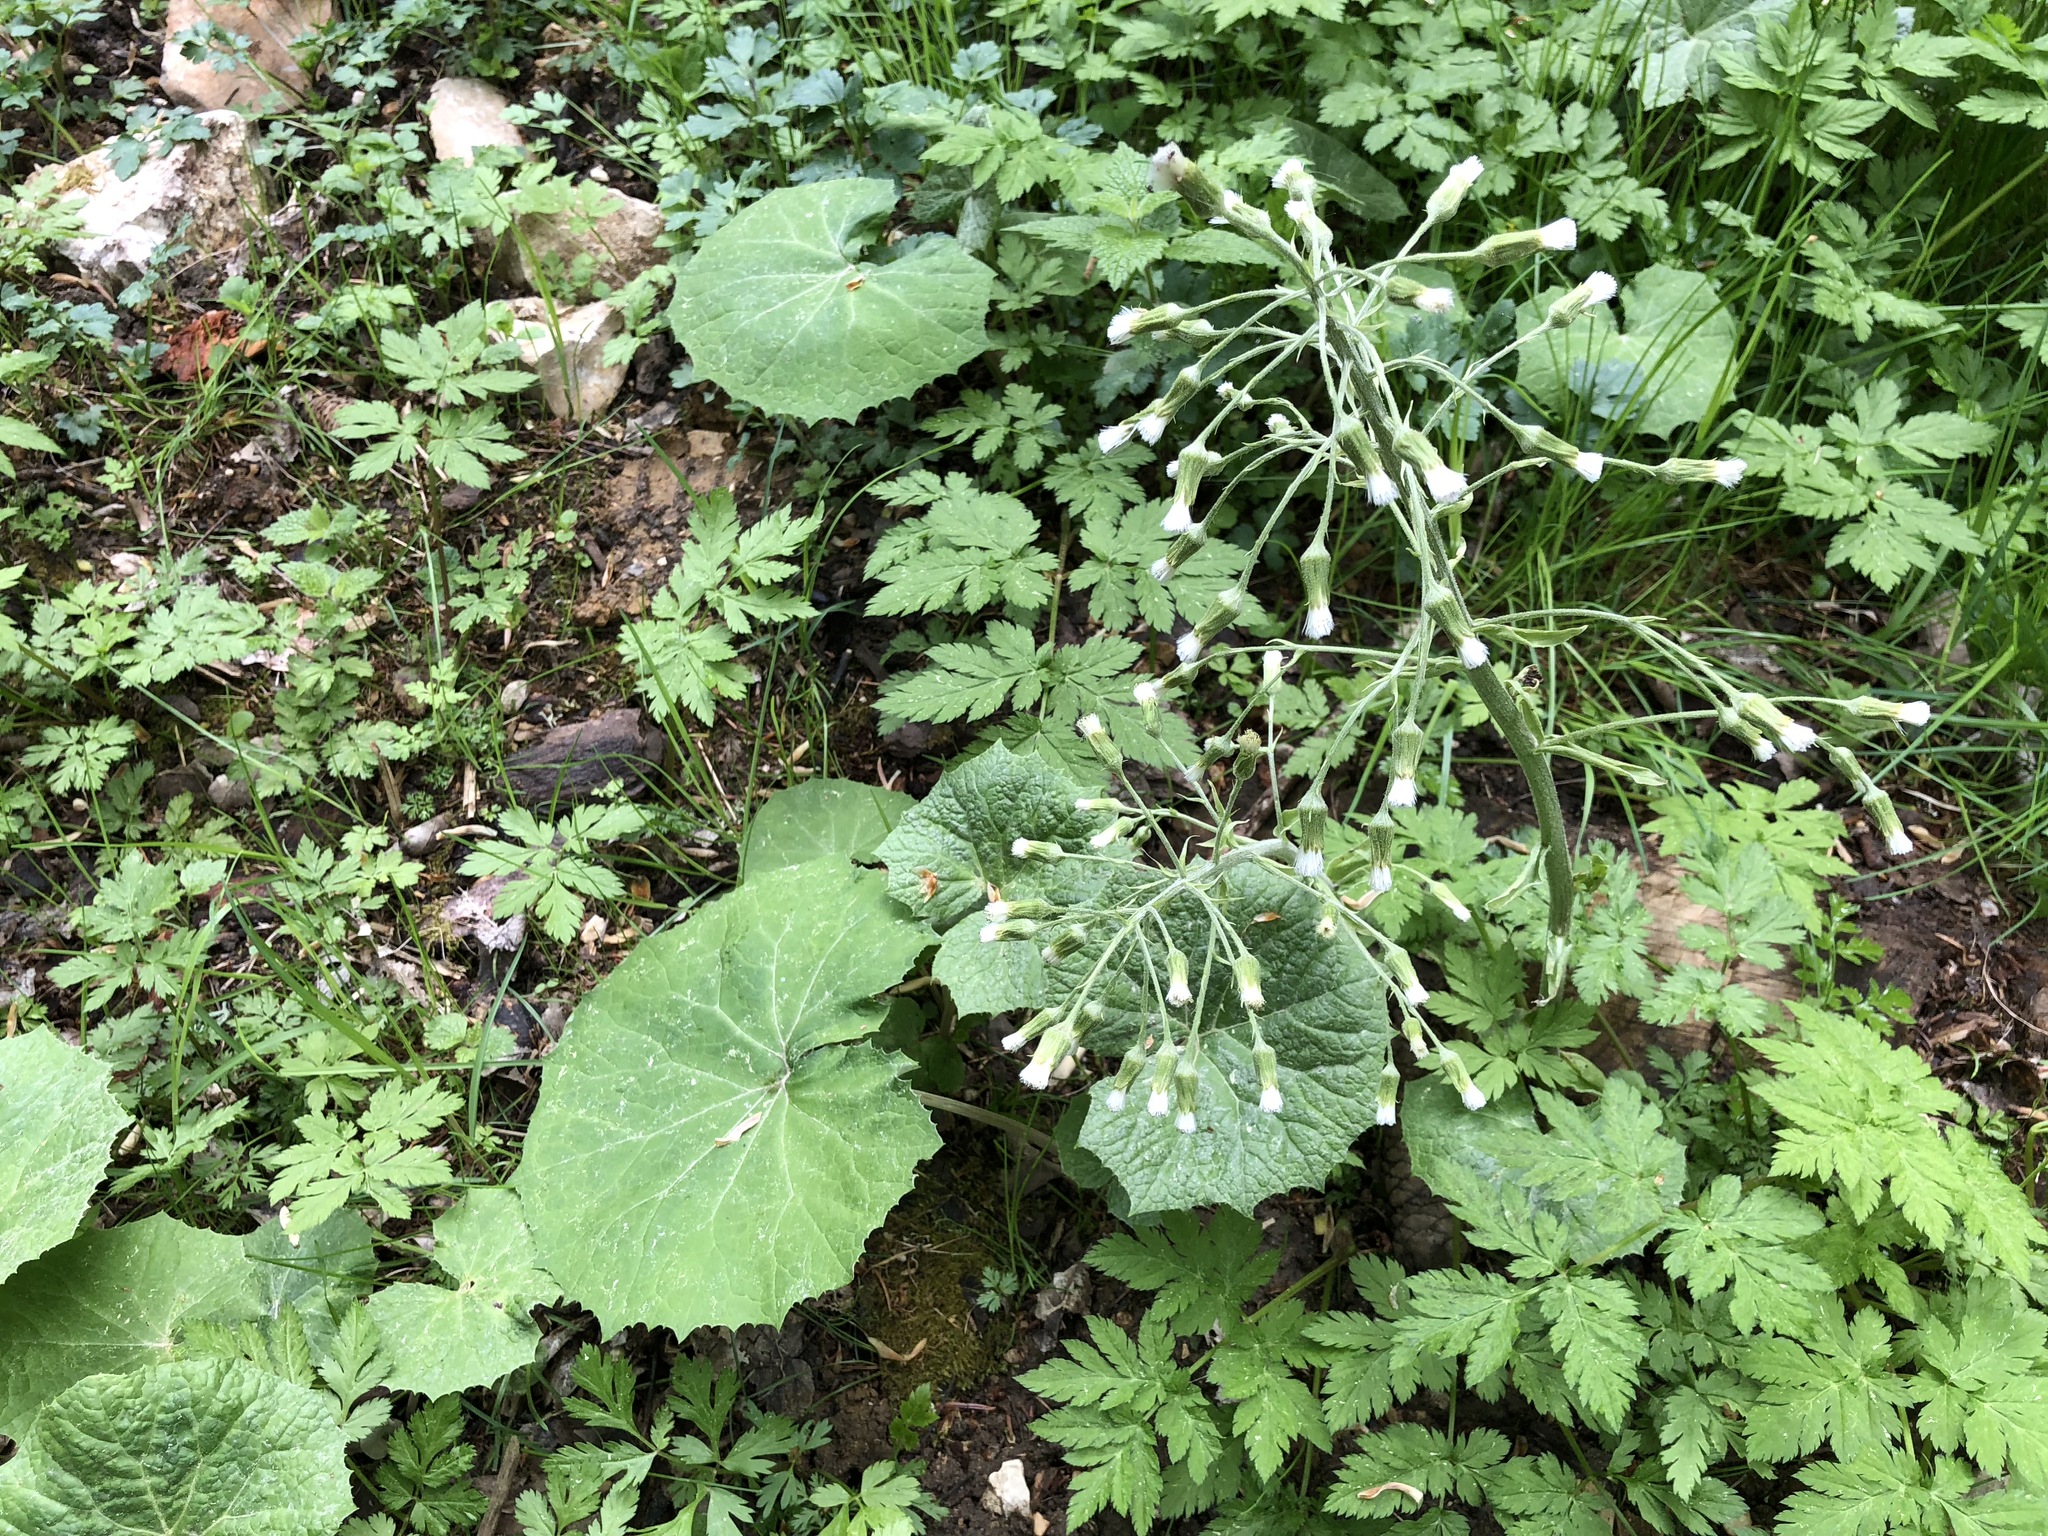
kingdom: Plantae
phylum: Tracheophyta
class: Magnoliopsida
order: Asterales
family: Asteraceae
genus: Petasites
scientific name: Petasites albus
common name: White butterbur
